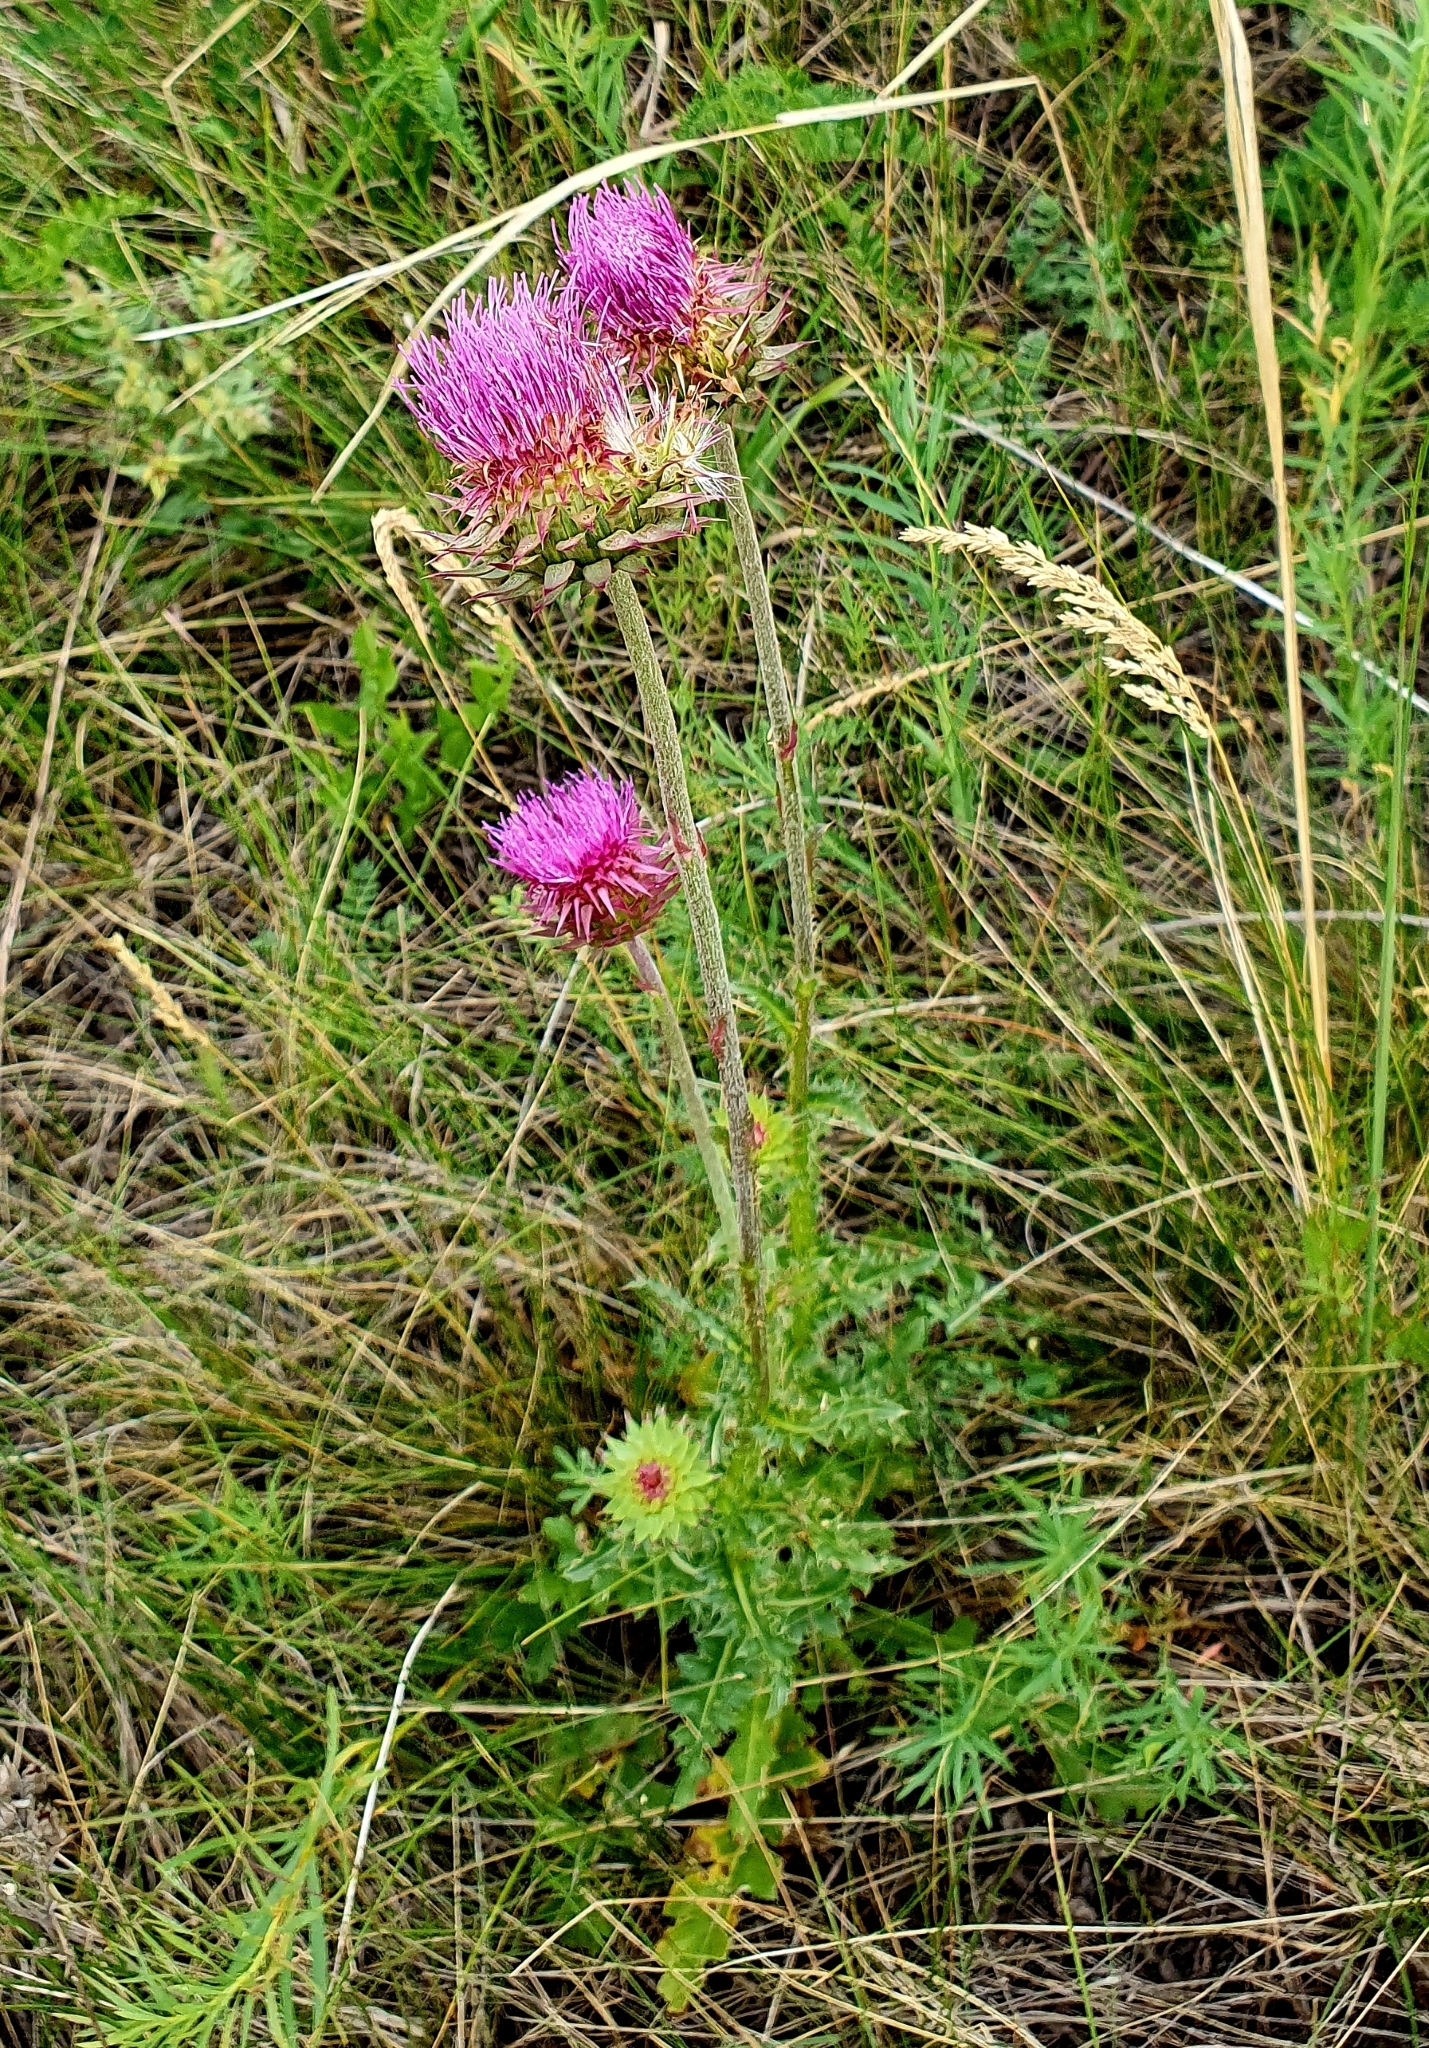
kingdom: Plantae
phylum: Tracheophyta
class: Magnoliopsida
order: Asterales
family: Asteraceae
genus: Carduus
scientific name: Carduus nutans
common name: Musk thistle
